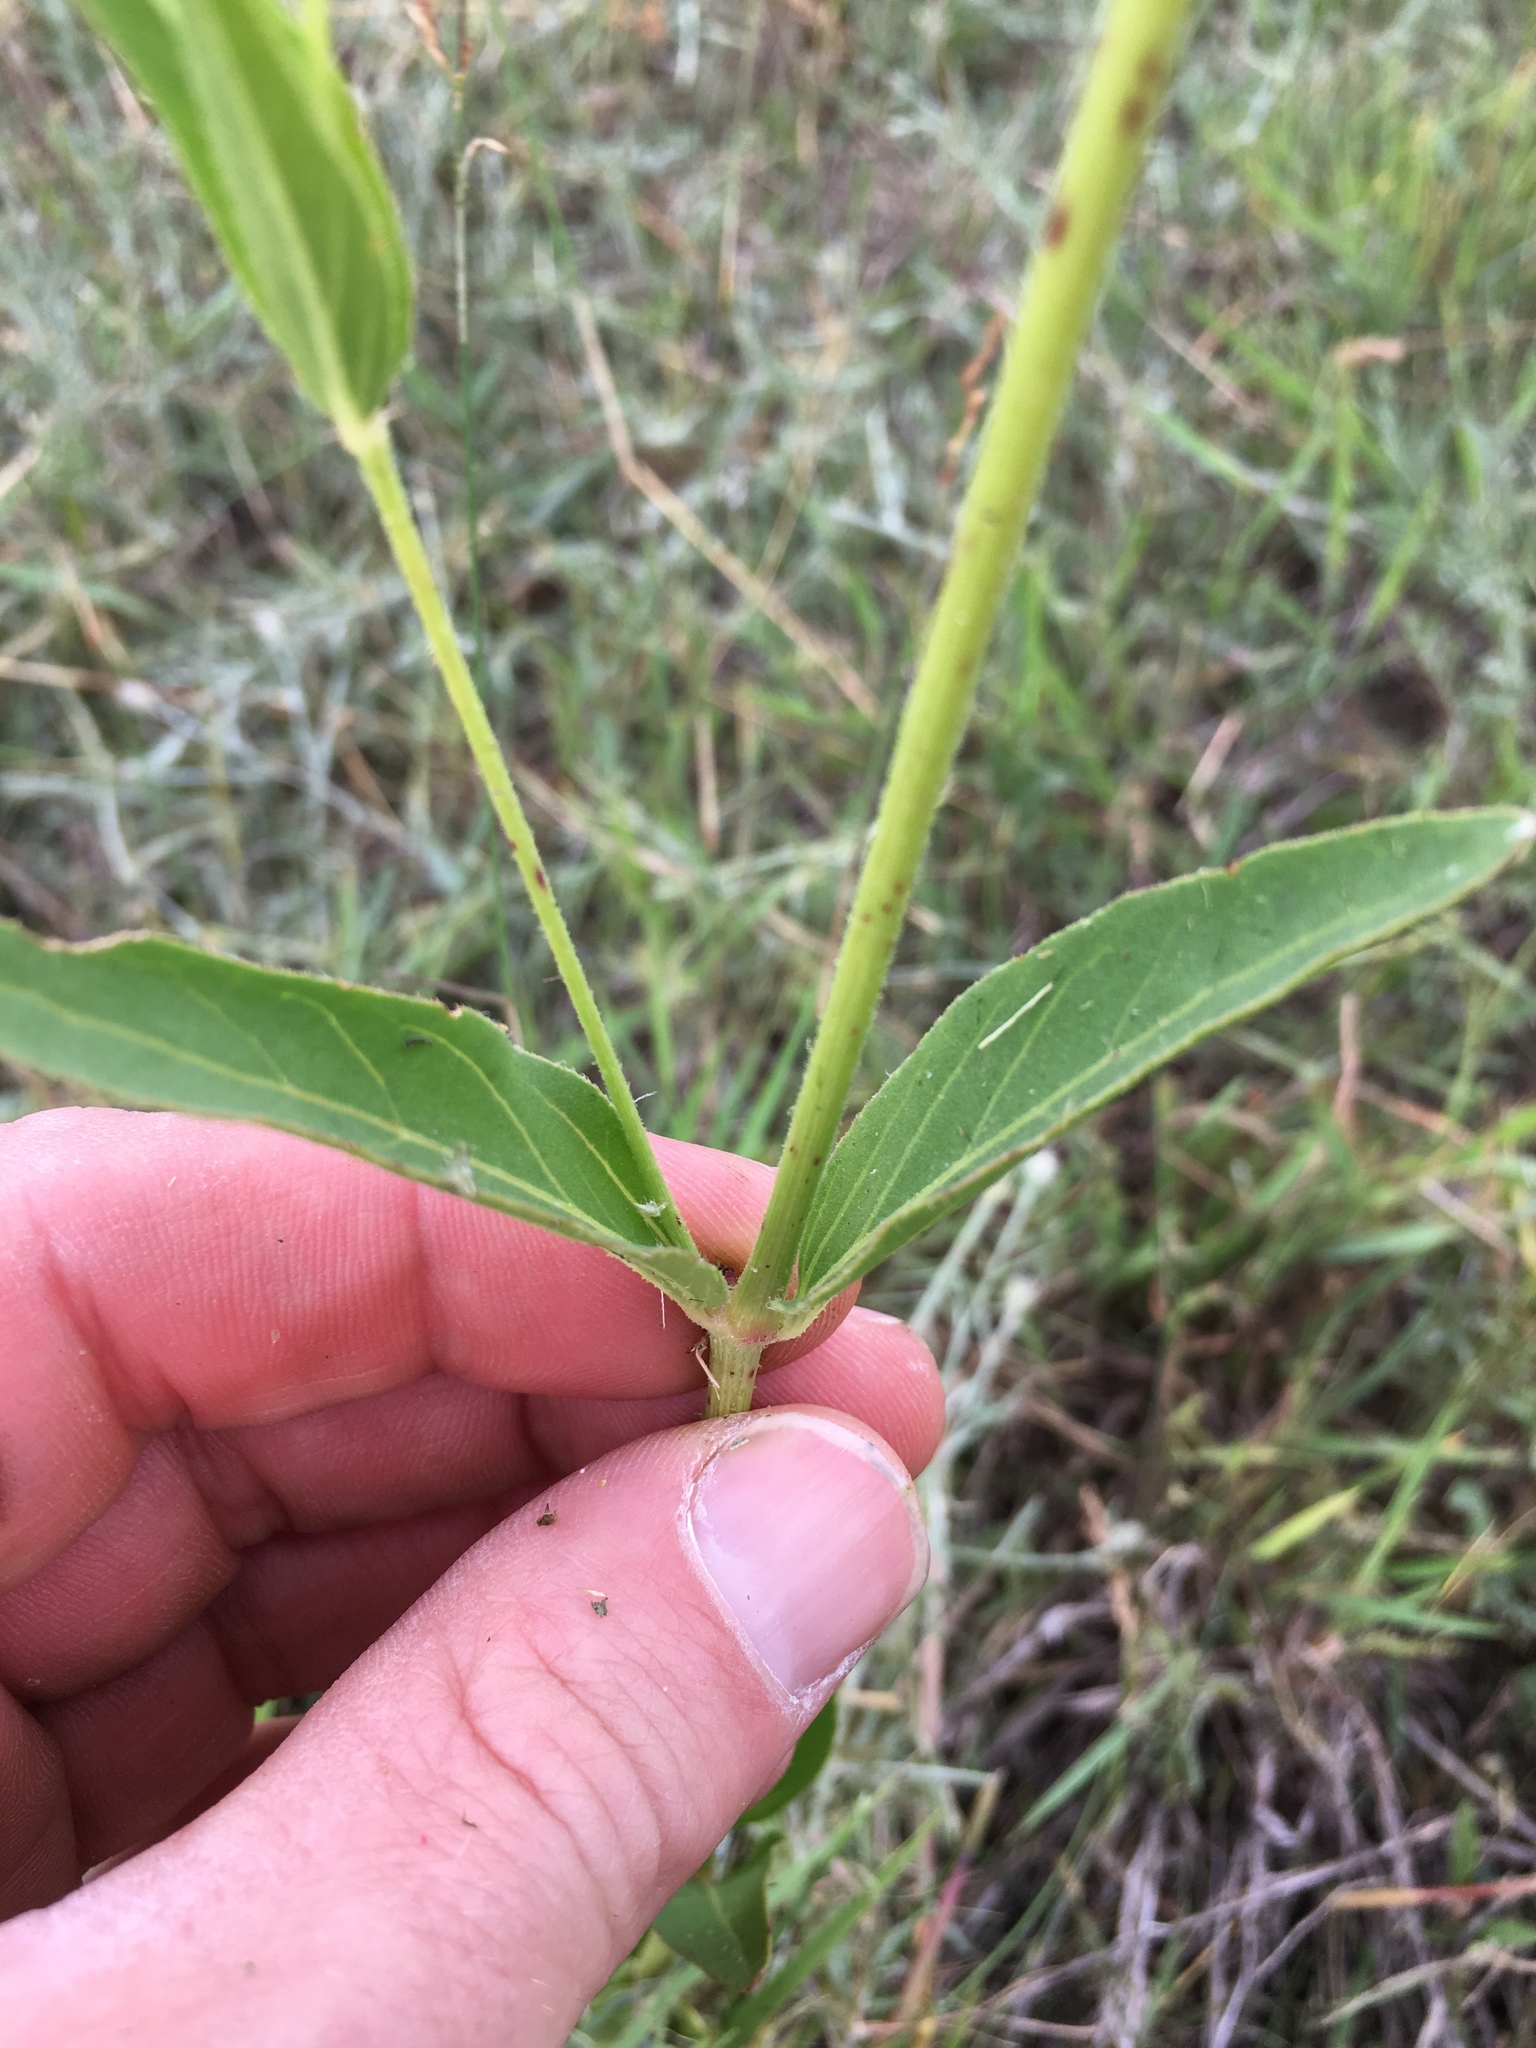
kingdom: Plantae
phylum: Tracheophyta
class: Magnoliopsida
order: Caryophyllales
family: Nyctaginaceae
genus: Mirabilis
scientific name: Mirabilis nyctaginea
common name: Umbrella wort
